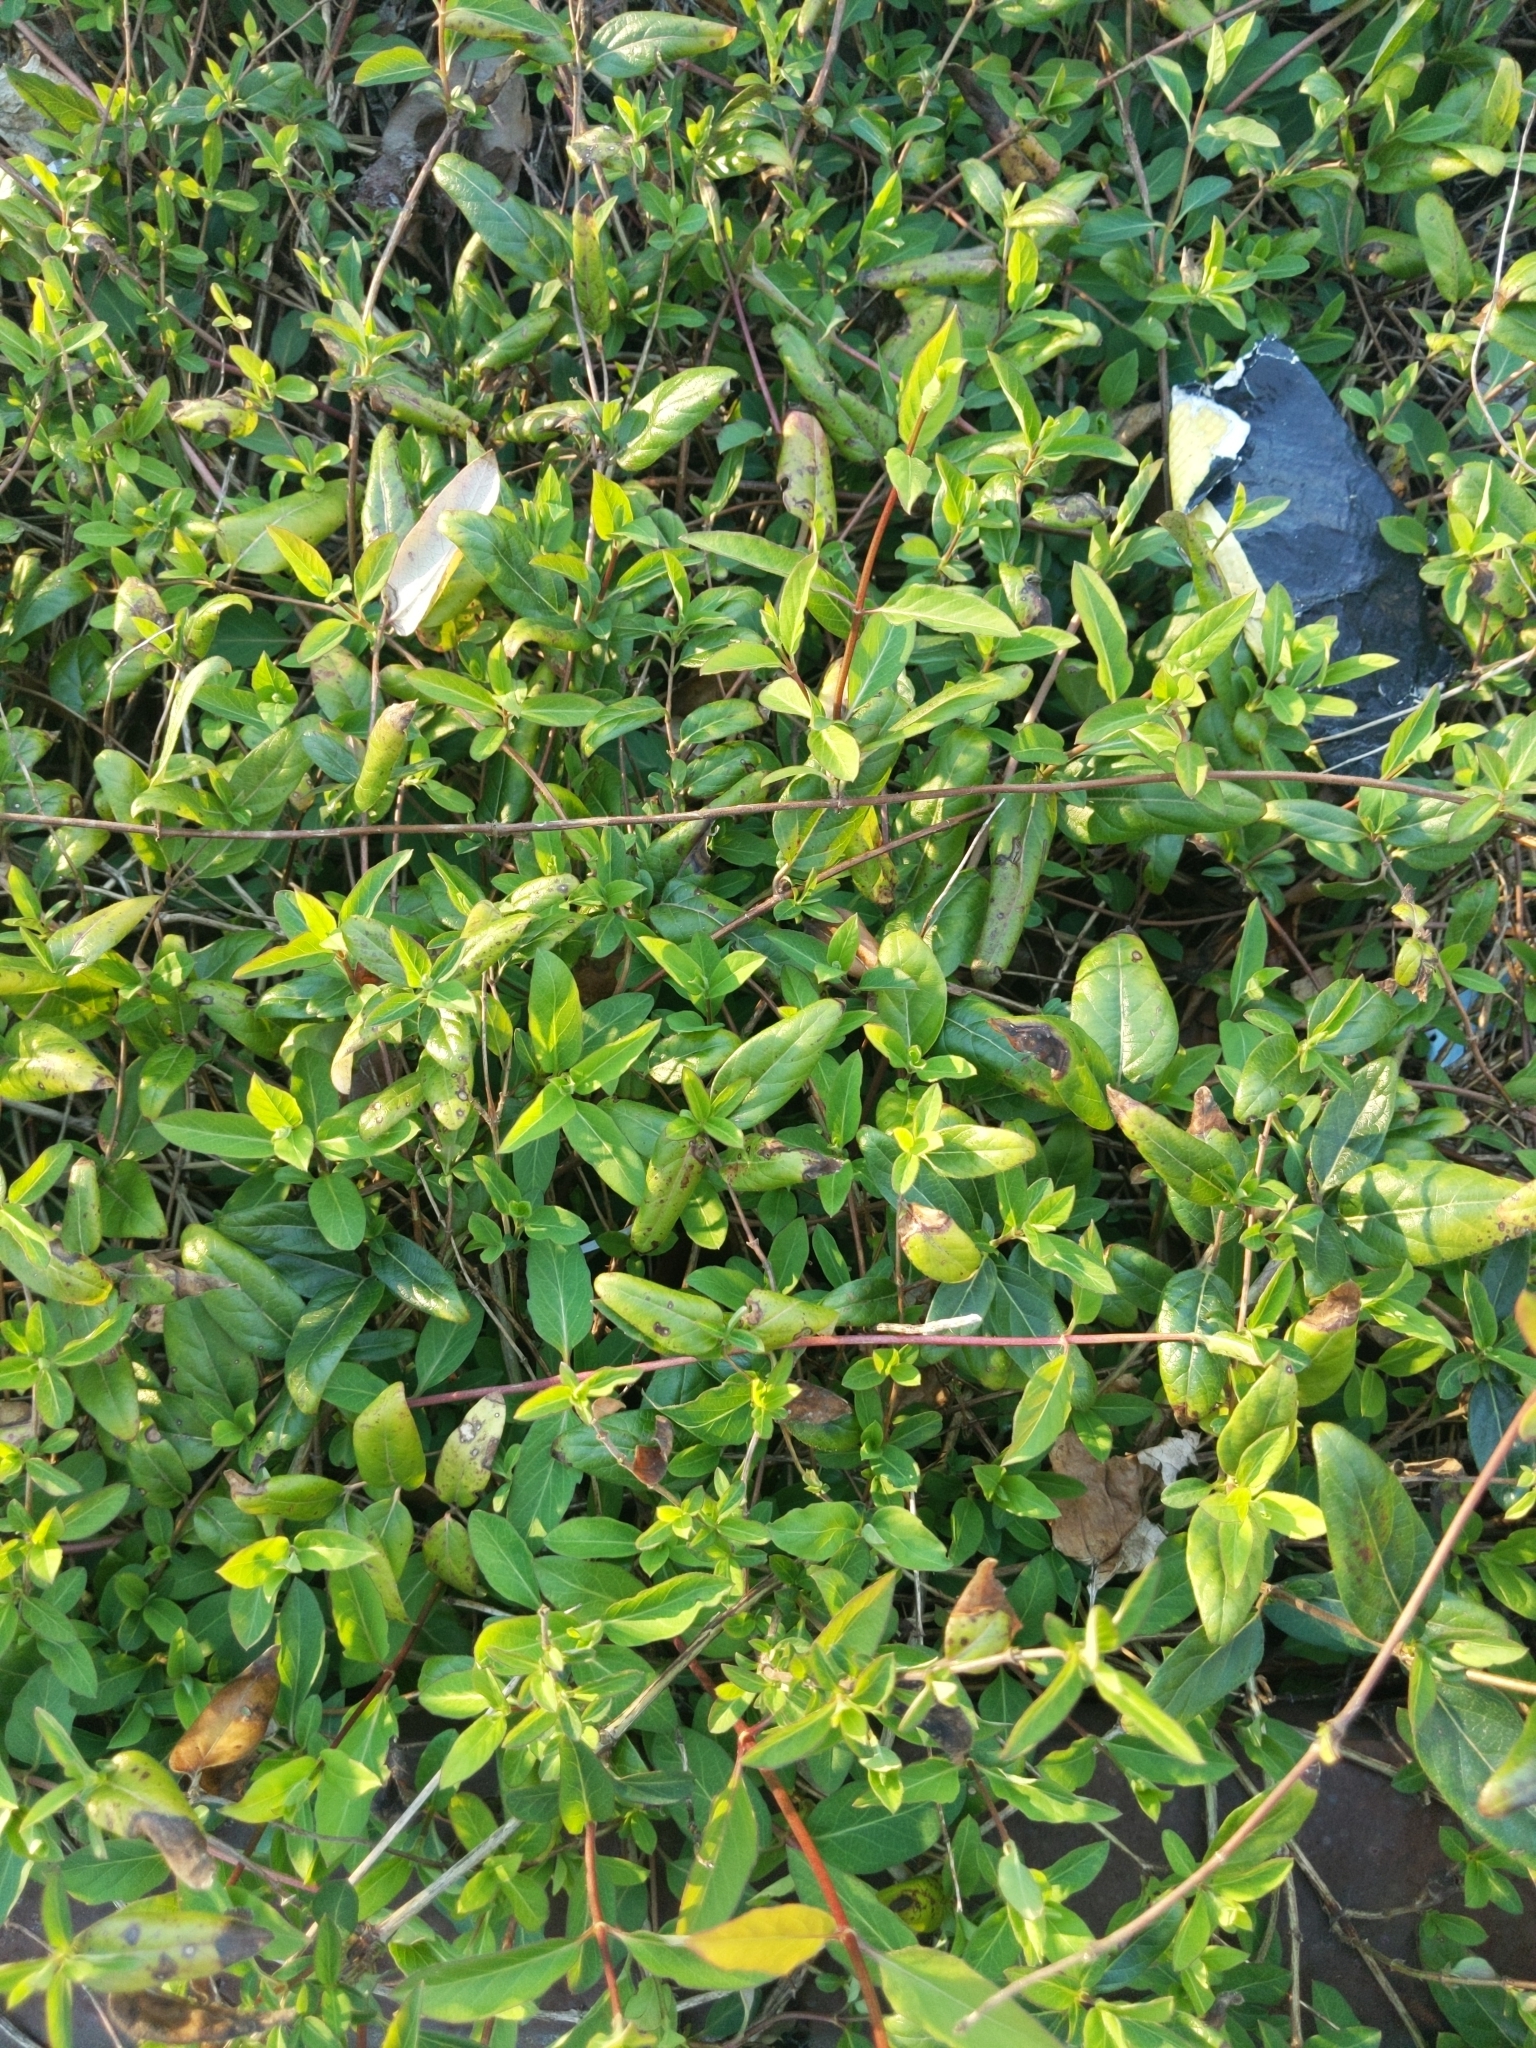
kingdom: Plantae
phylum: Tracheophyta
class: Magnoliopsida
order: Dipsacales
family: Caprifoliaceae
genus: Lonicera
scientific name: Lonicera japonica
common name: Japanese honeysuckle
